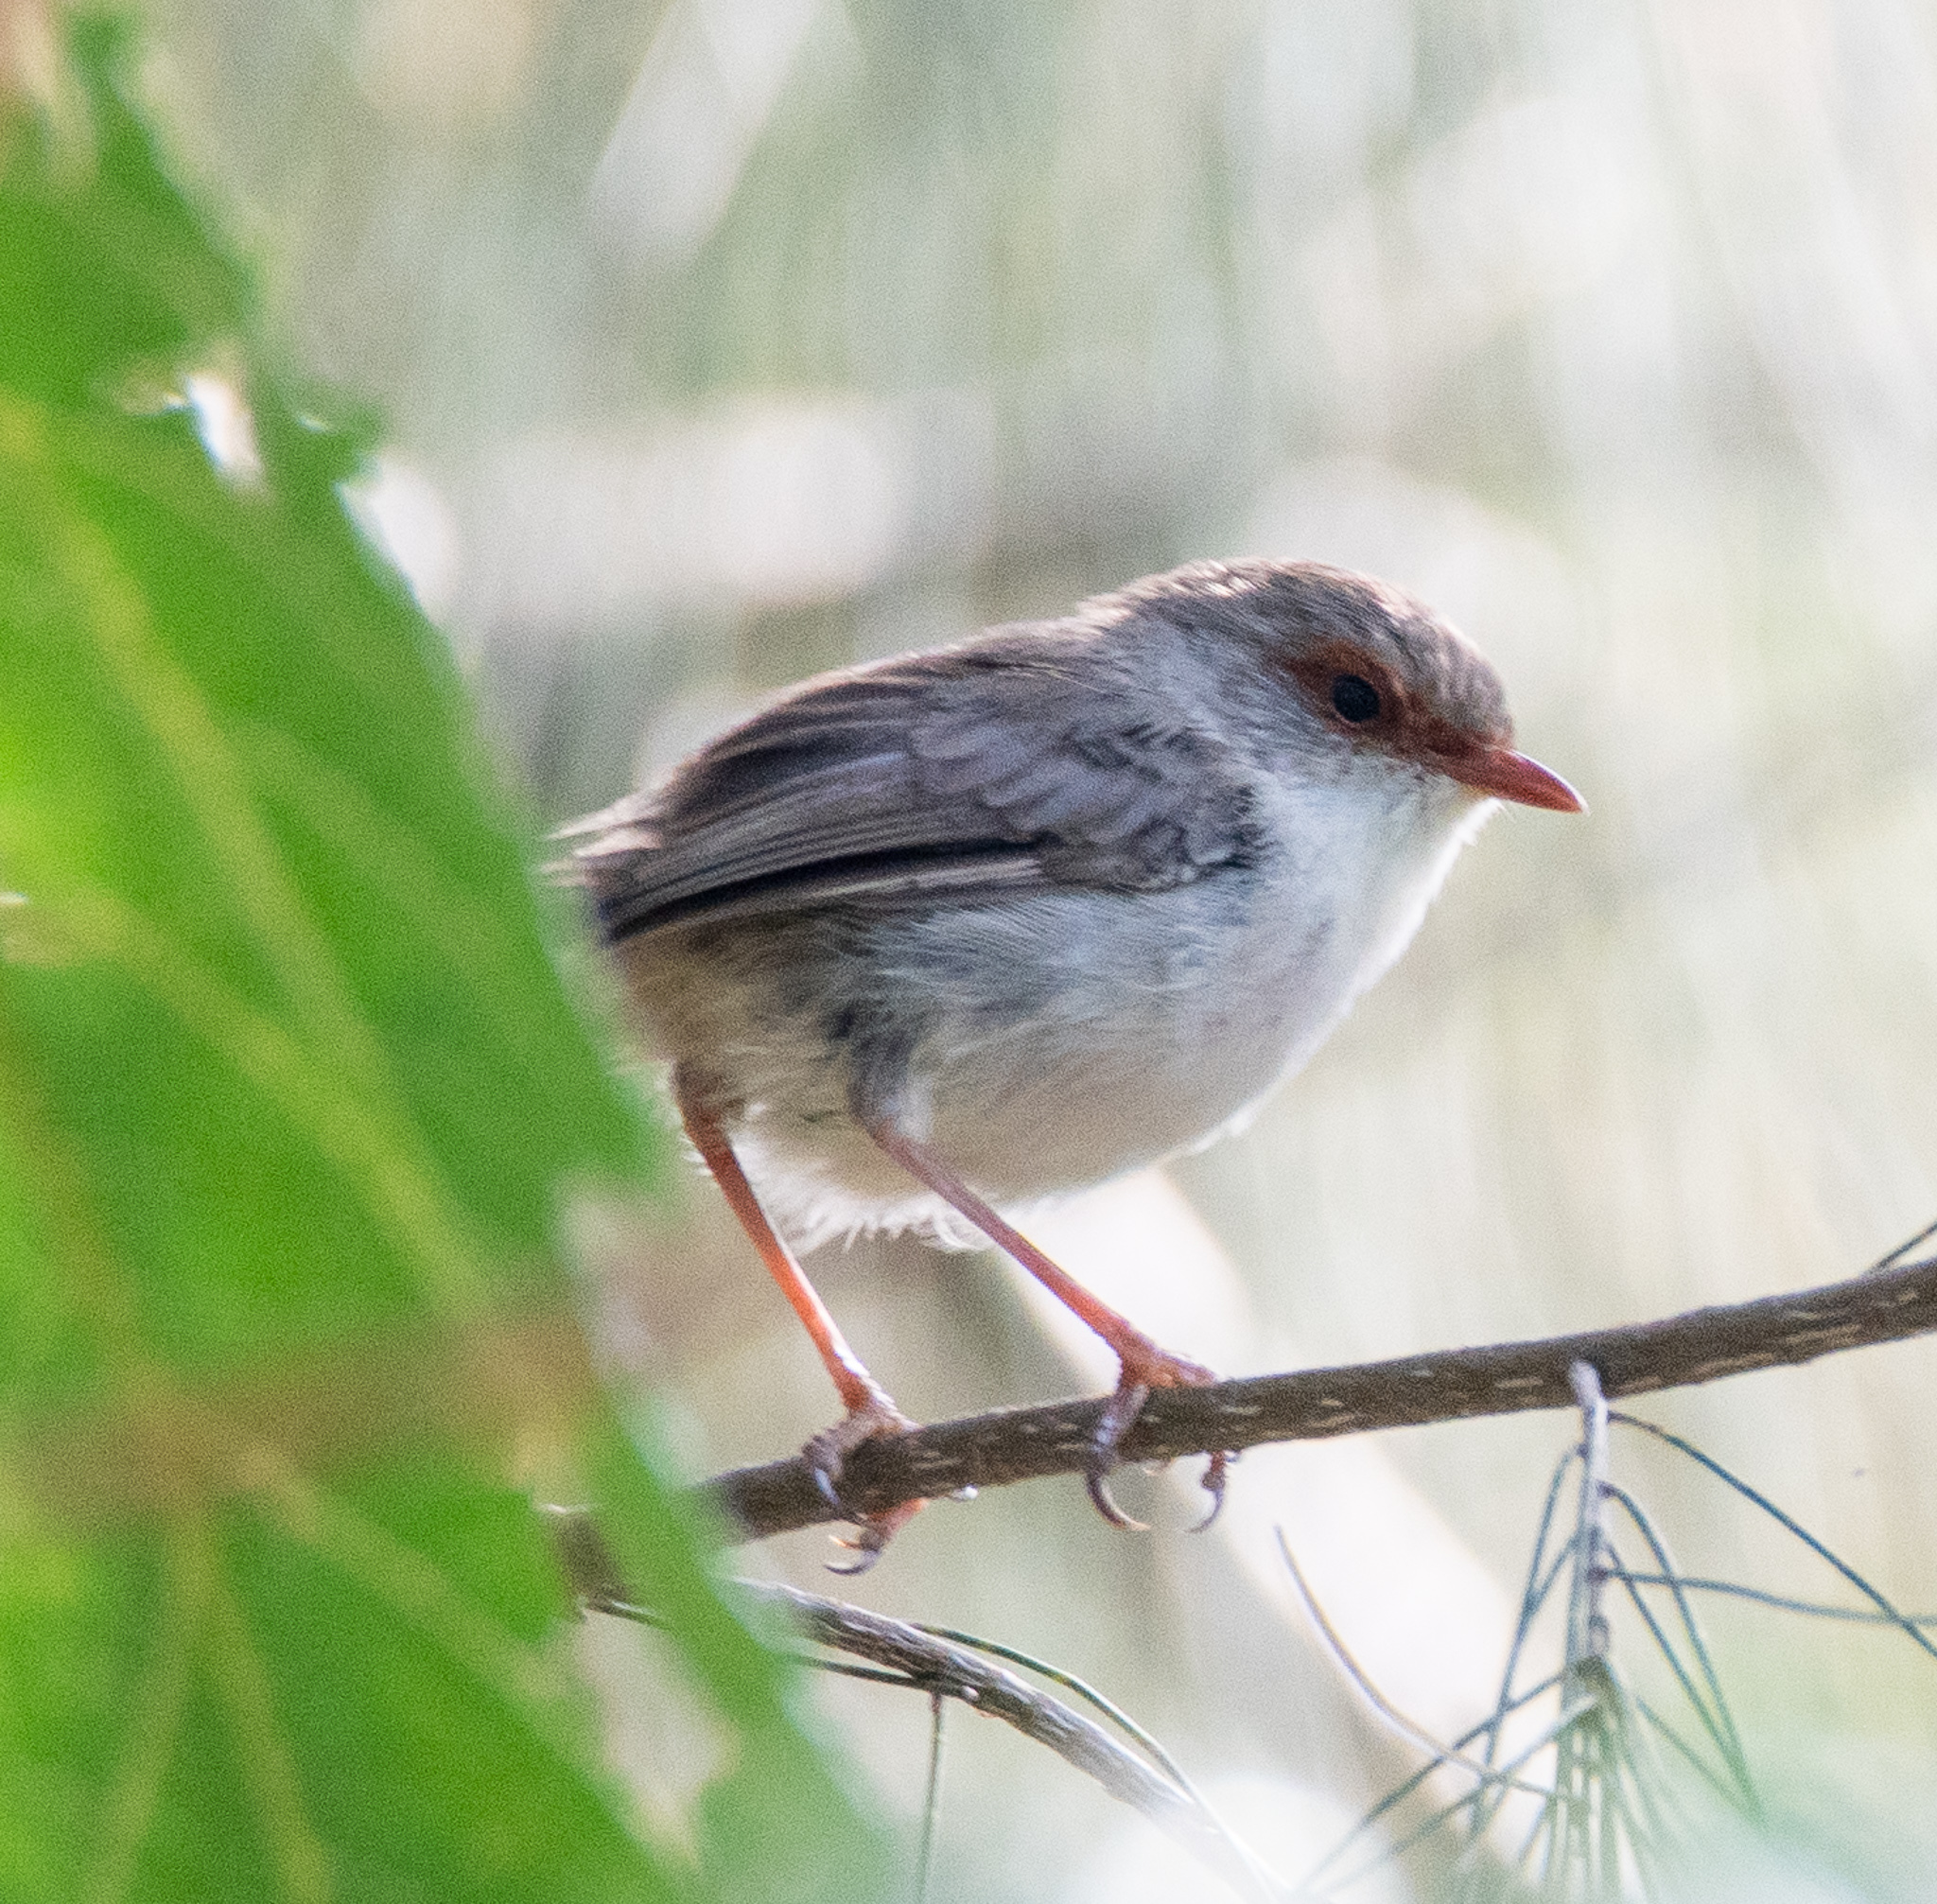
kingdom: Animalia
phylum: Chordata
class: Aves
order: Passeriformes
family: Maluridae
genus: Malurus
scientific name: Malurus cyaneus
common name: Superb fairywren
